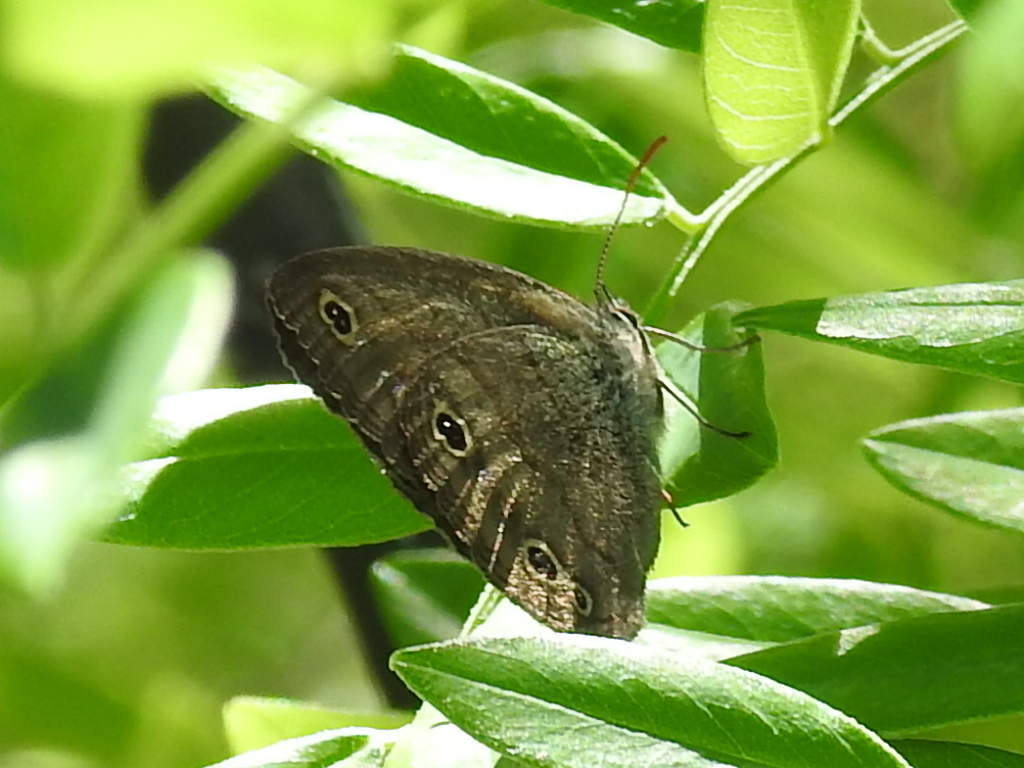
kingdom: Animalia
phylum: Arthropoda
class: Insecta
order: Lepidoptera
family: Nymphalidae
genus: Euptychia
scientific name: Euptychia cymela
